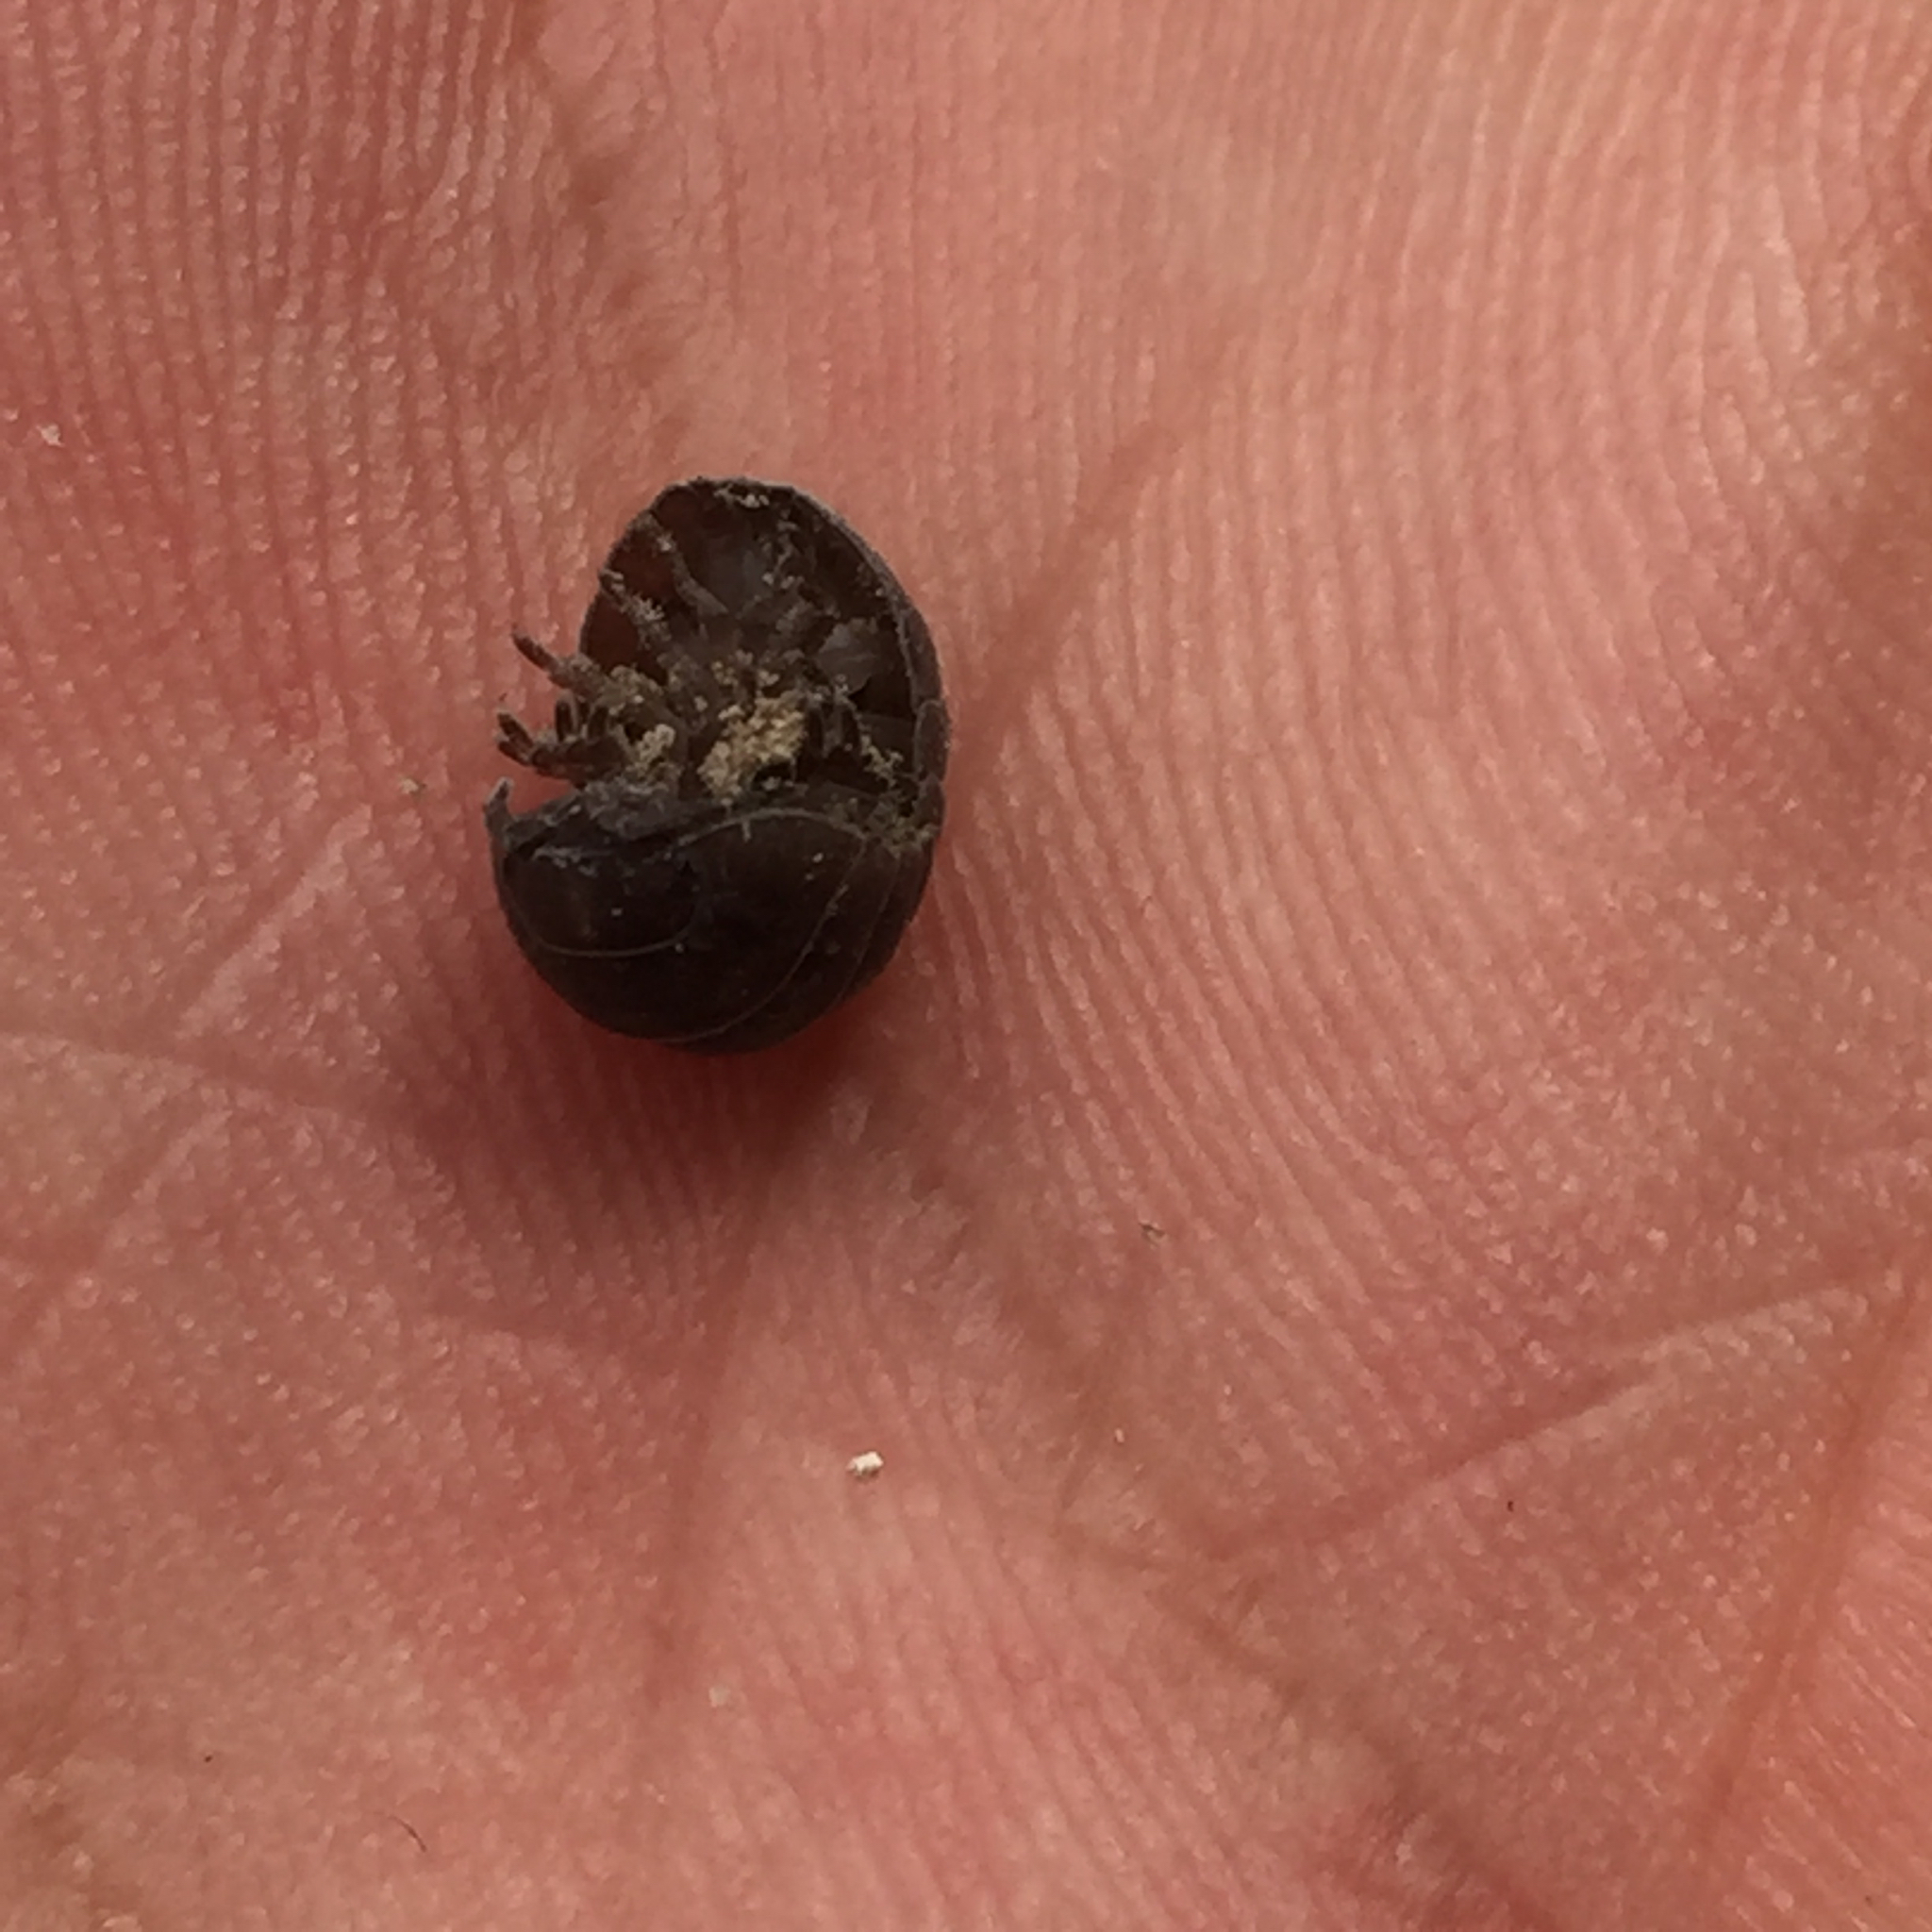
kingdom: Animalia
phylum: Arthropoda
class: Malacostraca
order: Isopoda
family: Armadillidiidae
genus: Armadillidium
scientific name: Armadillidium vulgare
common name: Common pill woodlouse
